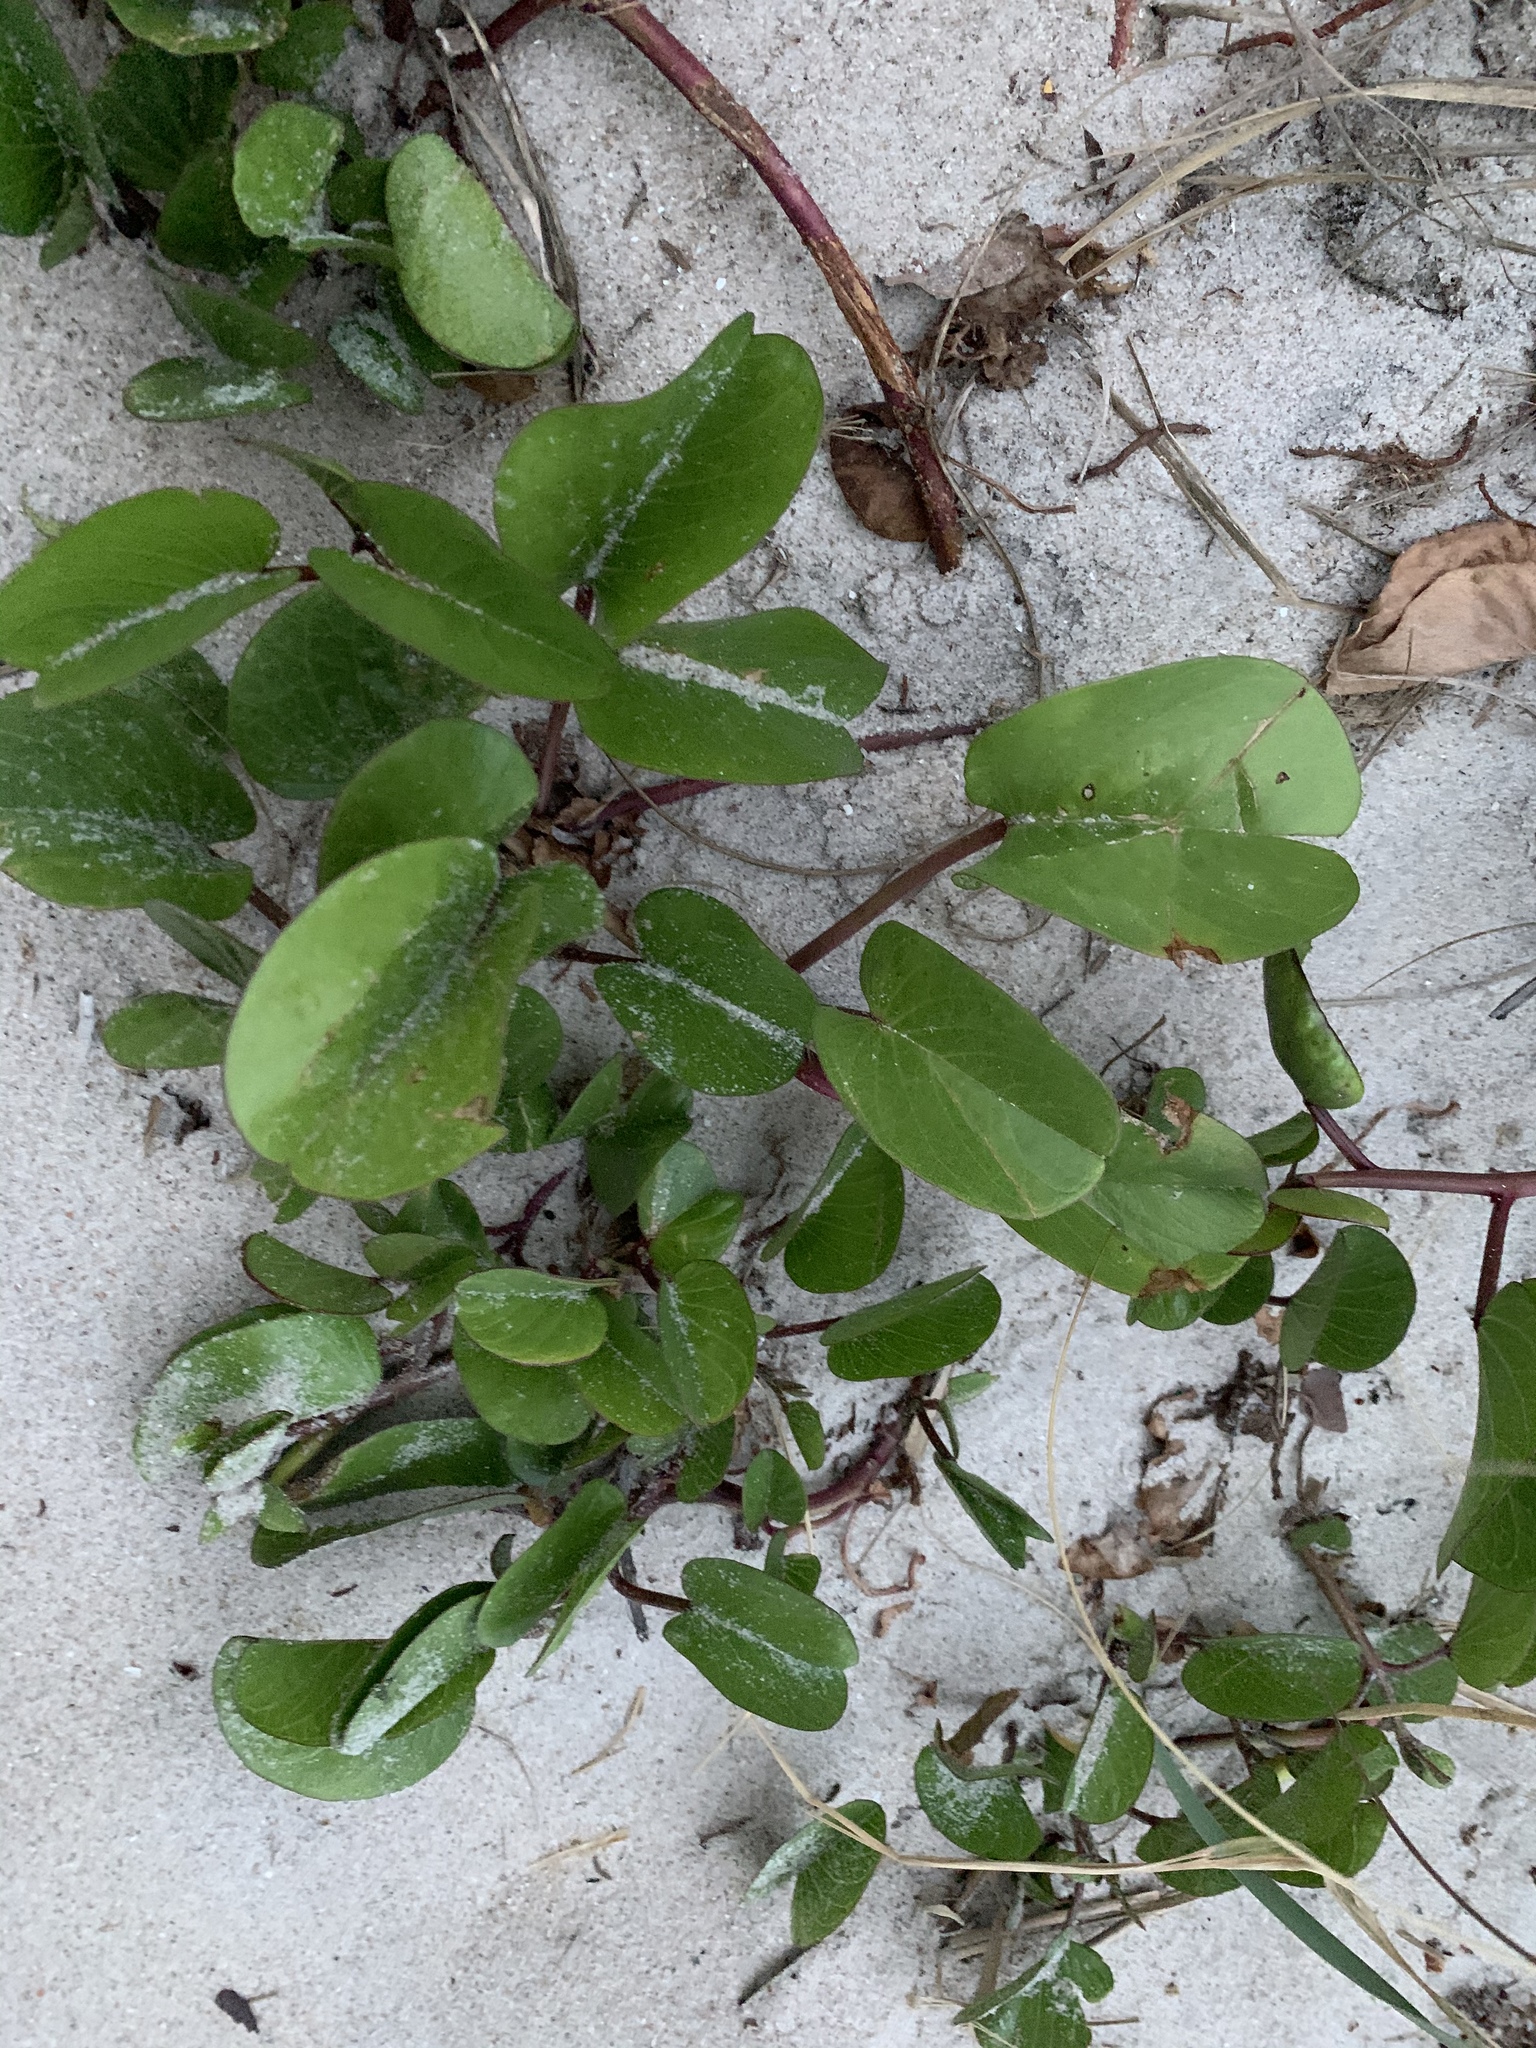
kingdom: Plantae
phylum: Tracheophyta
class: Magnoliopsida
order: Solanales
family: Convolvulaceae
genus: Ipomoea
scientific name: Ipomoea pes-caprae
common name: Beach morning glory
